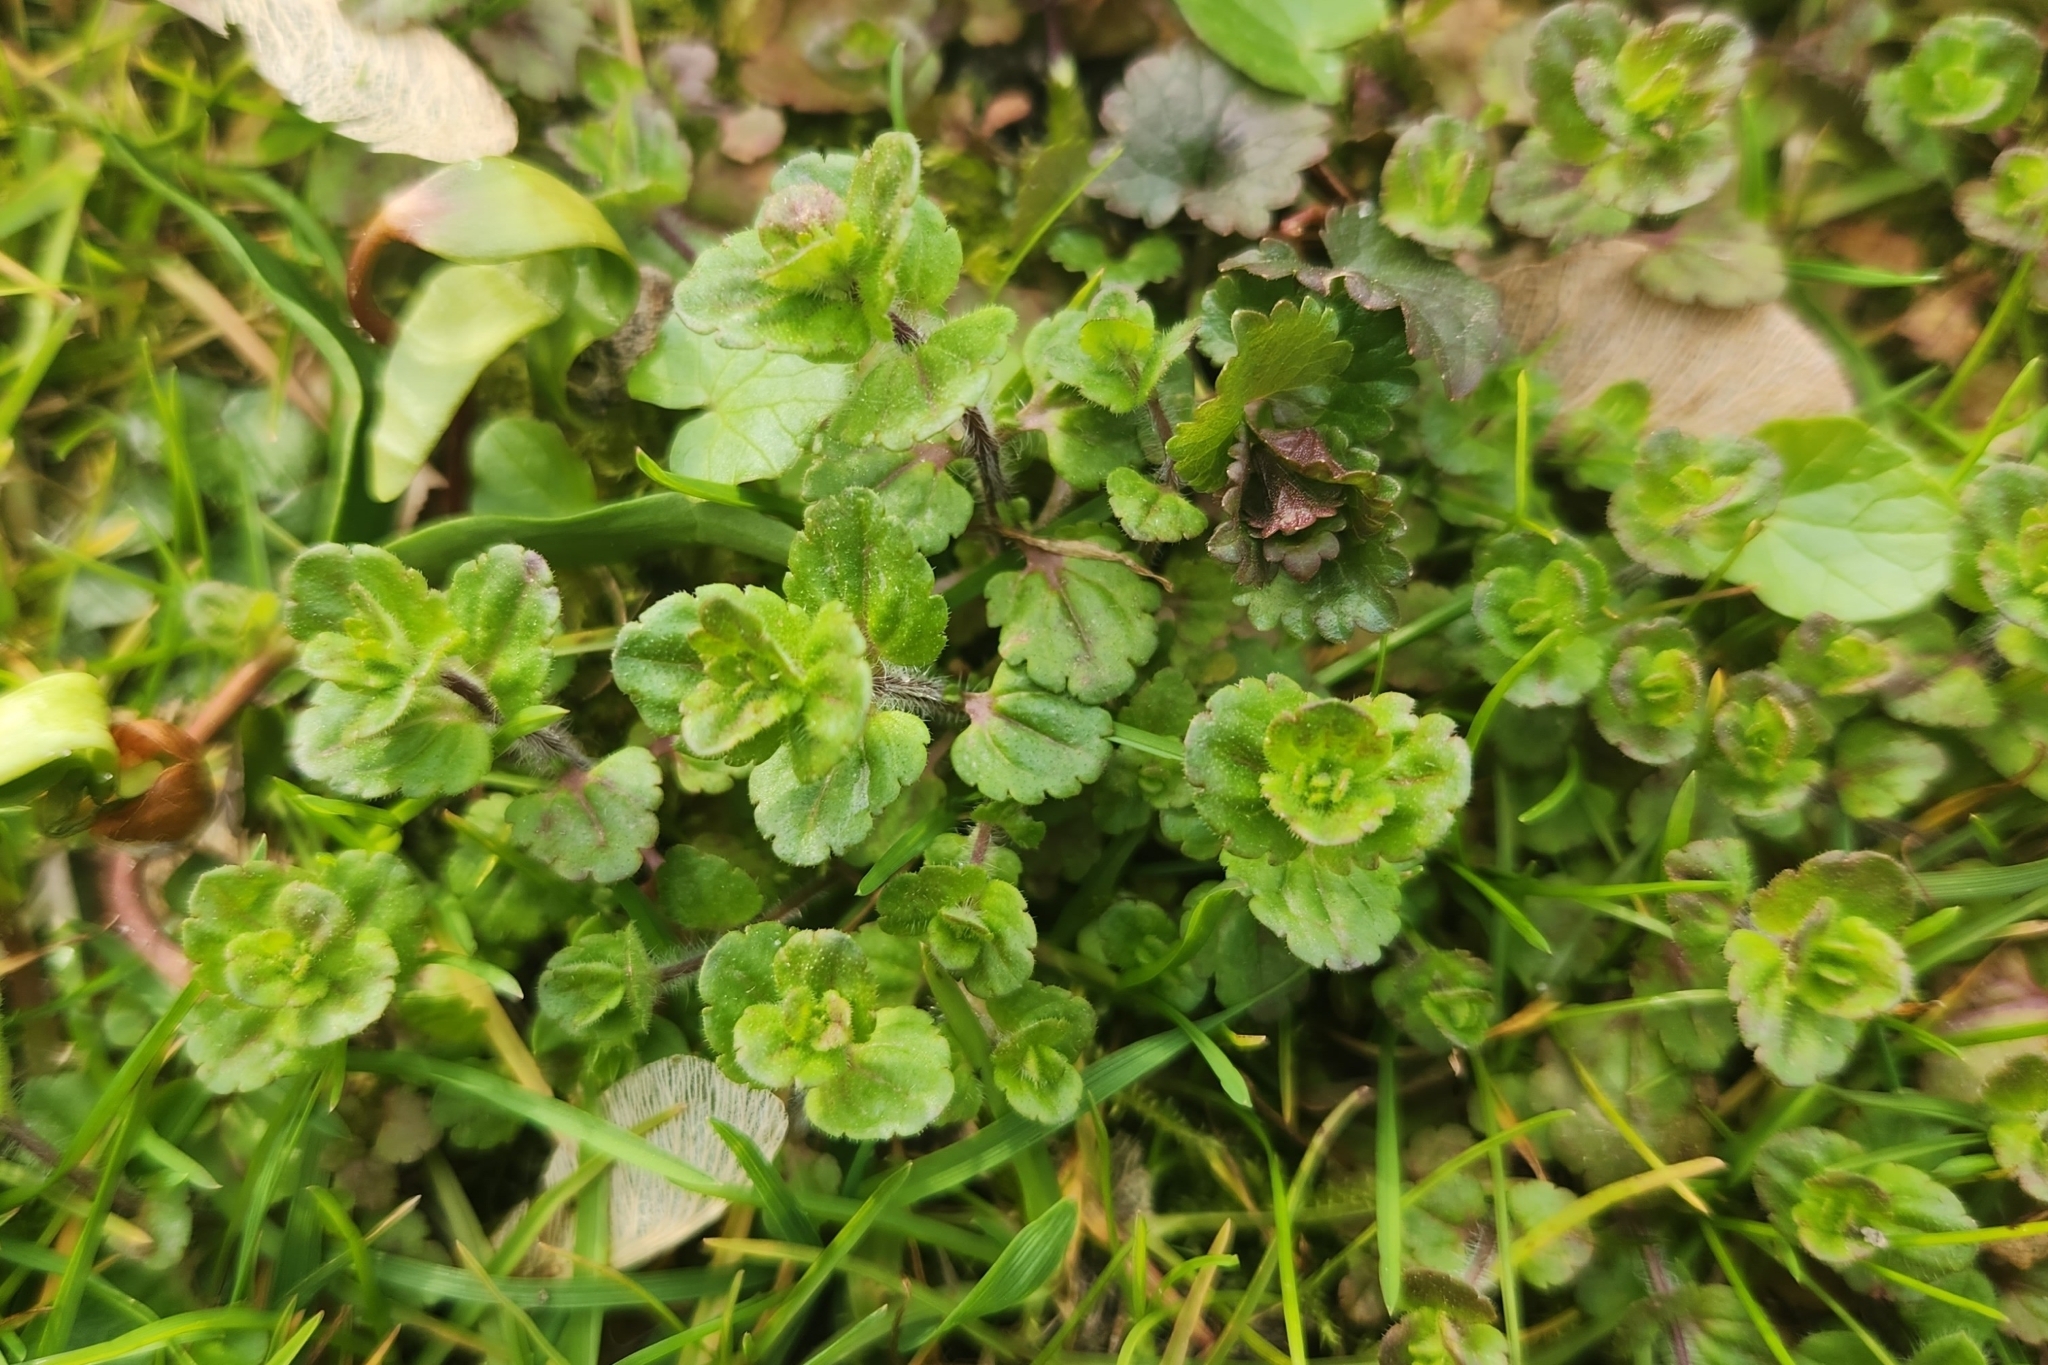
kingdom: Plantae
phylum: Tracheophyta
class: Magnoliopsida
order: Lamiales
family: Plantaginaceae
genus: Veronica
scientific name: Veronica arvensis
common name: Corn speedwell
